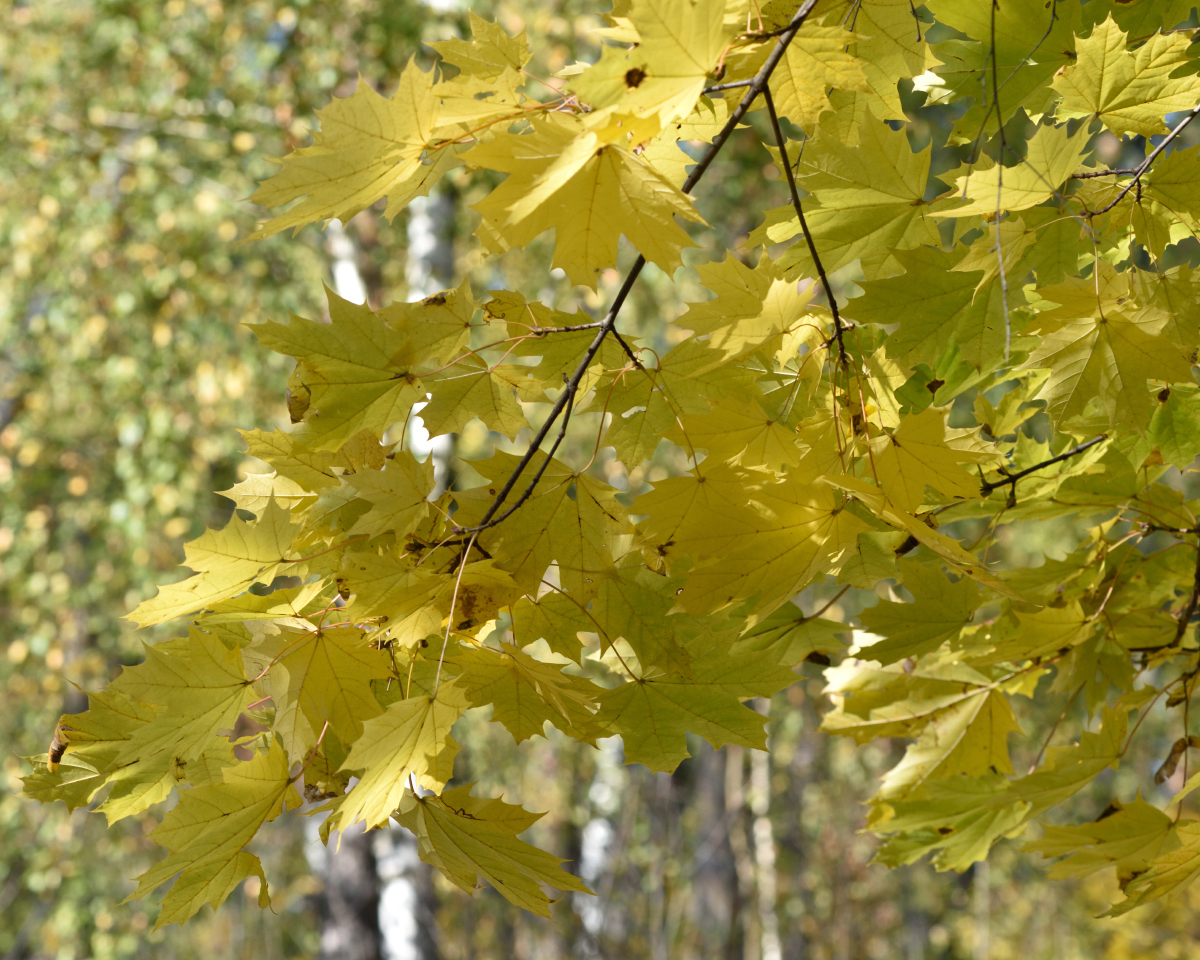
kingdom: Plantae
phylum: Tracheophyta
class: Magnoliopsida
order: Sapindales
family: Sapindaceae
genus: Acer
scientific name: Acer platanoides
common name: Norway maple
